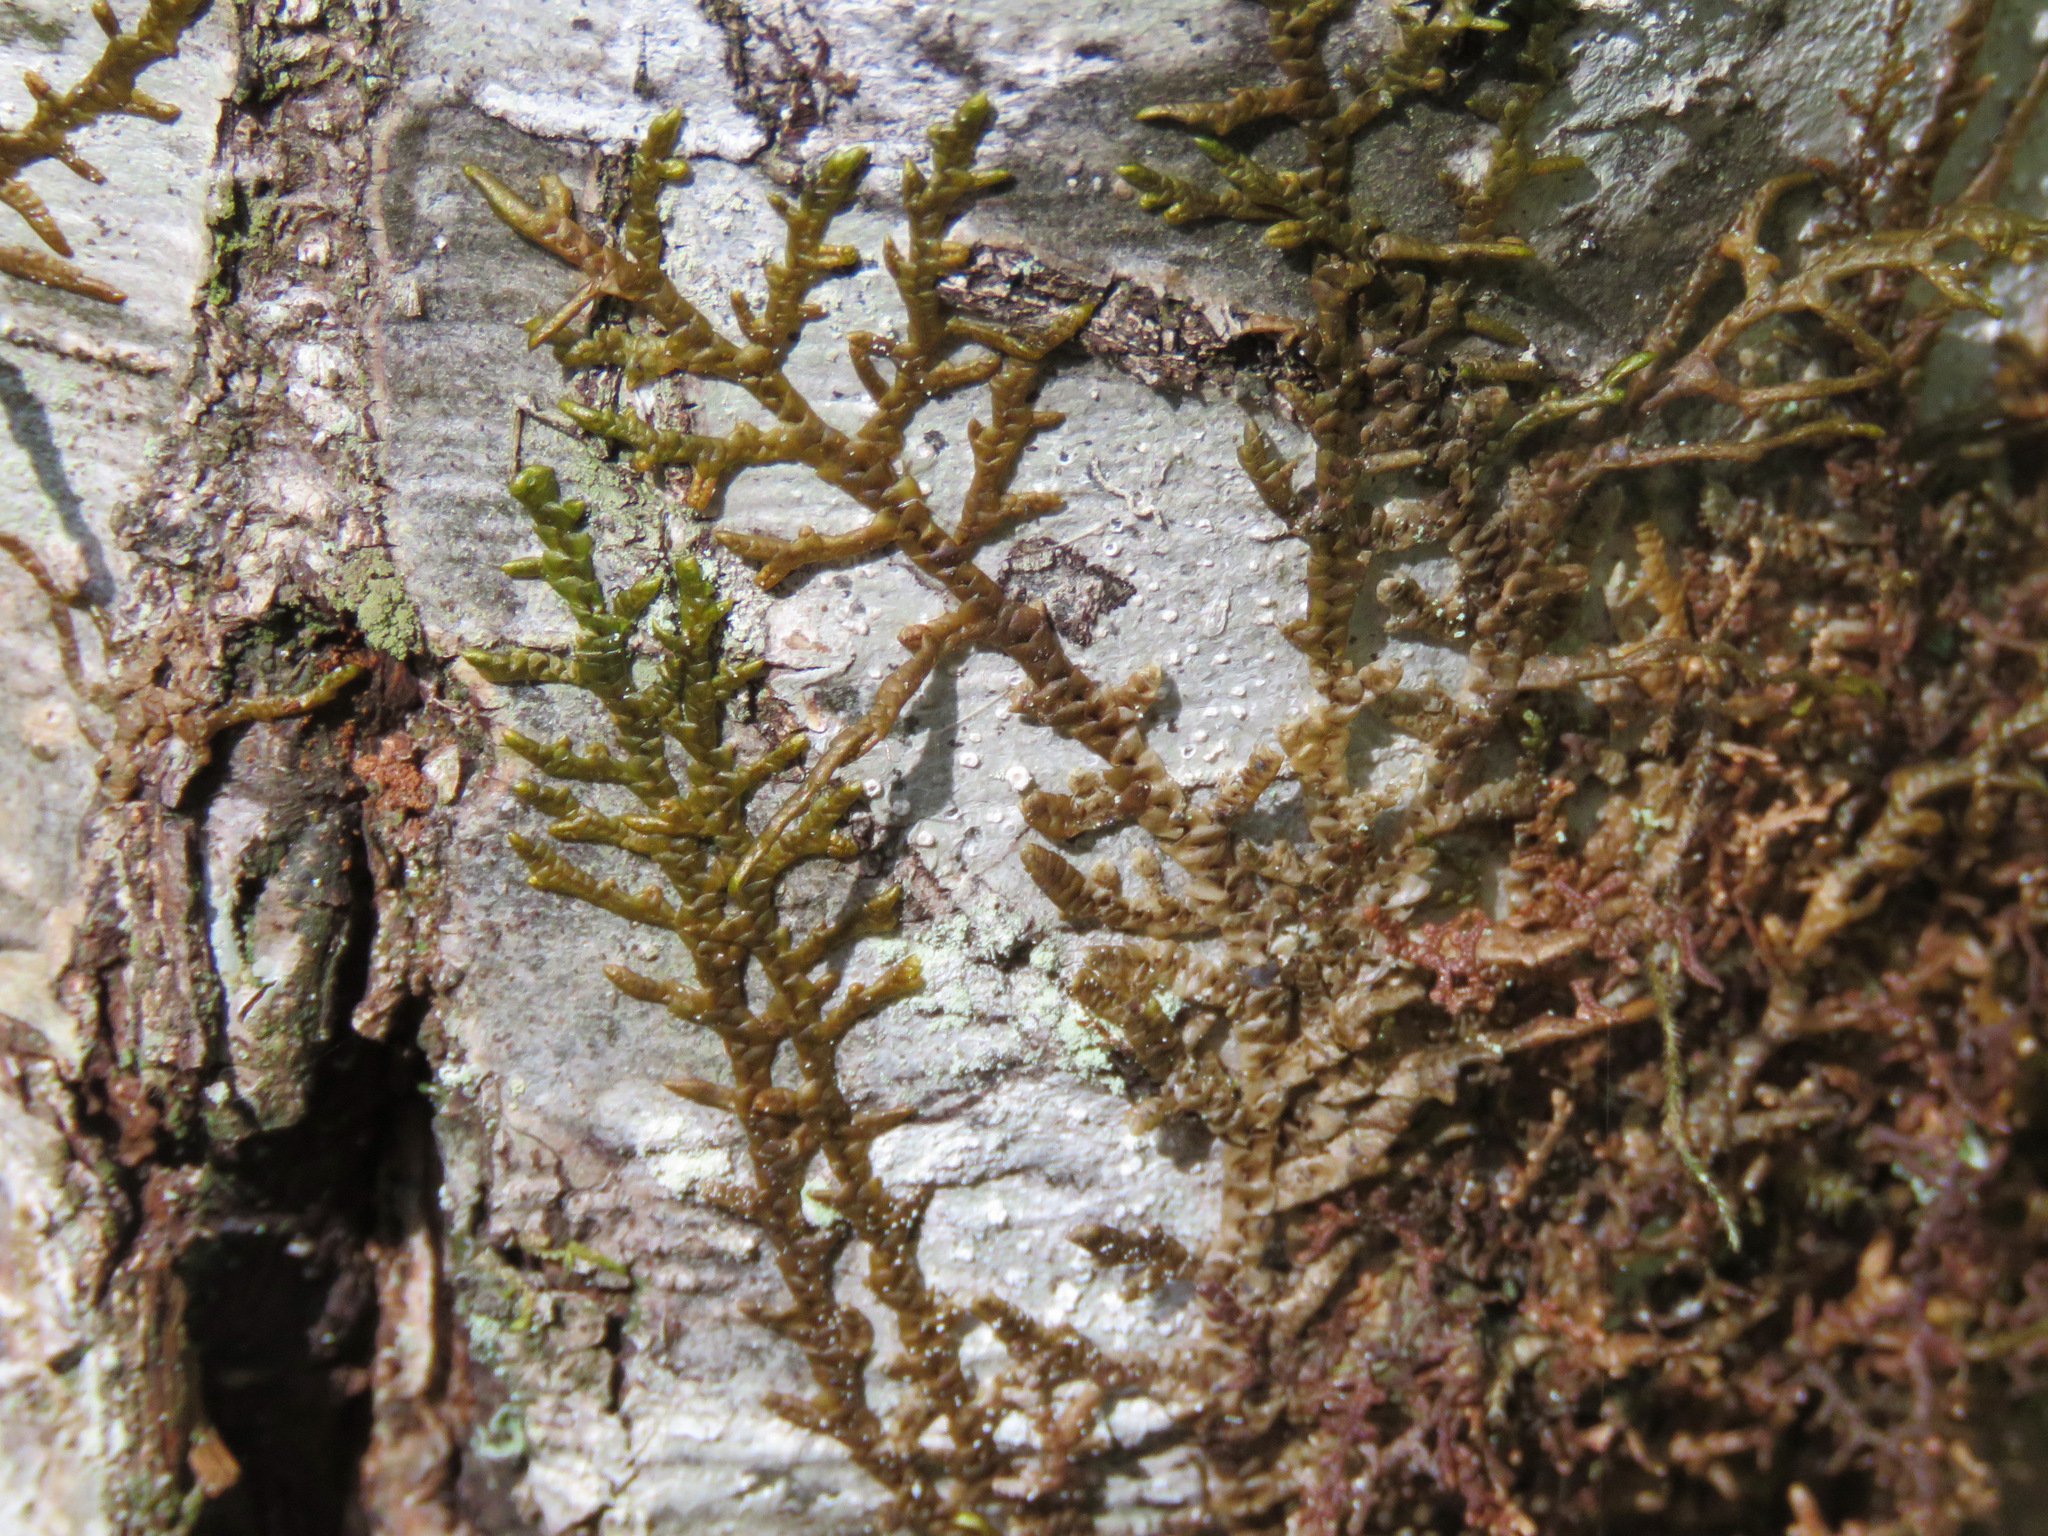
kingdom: Plantae
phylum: Marchantiophyta
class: Jungermanniopsida
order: Porellales
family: Porellaceae
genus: Porella
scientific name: Porella navicularis
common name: Tree ruffle liverwort
